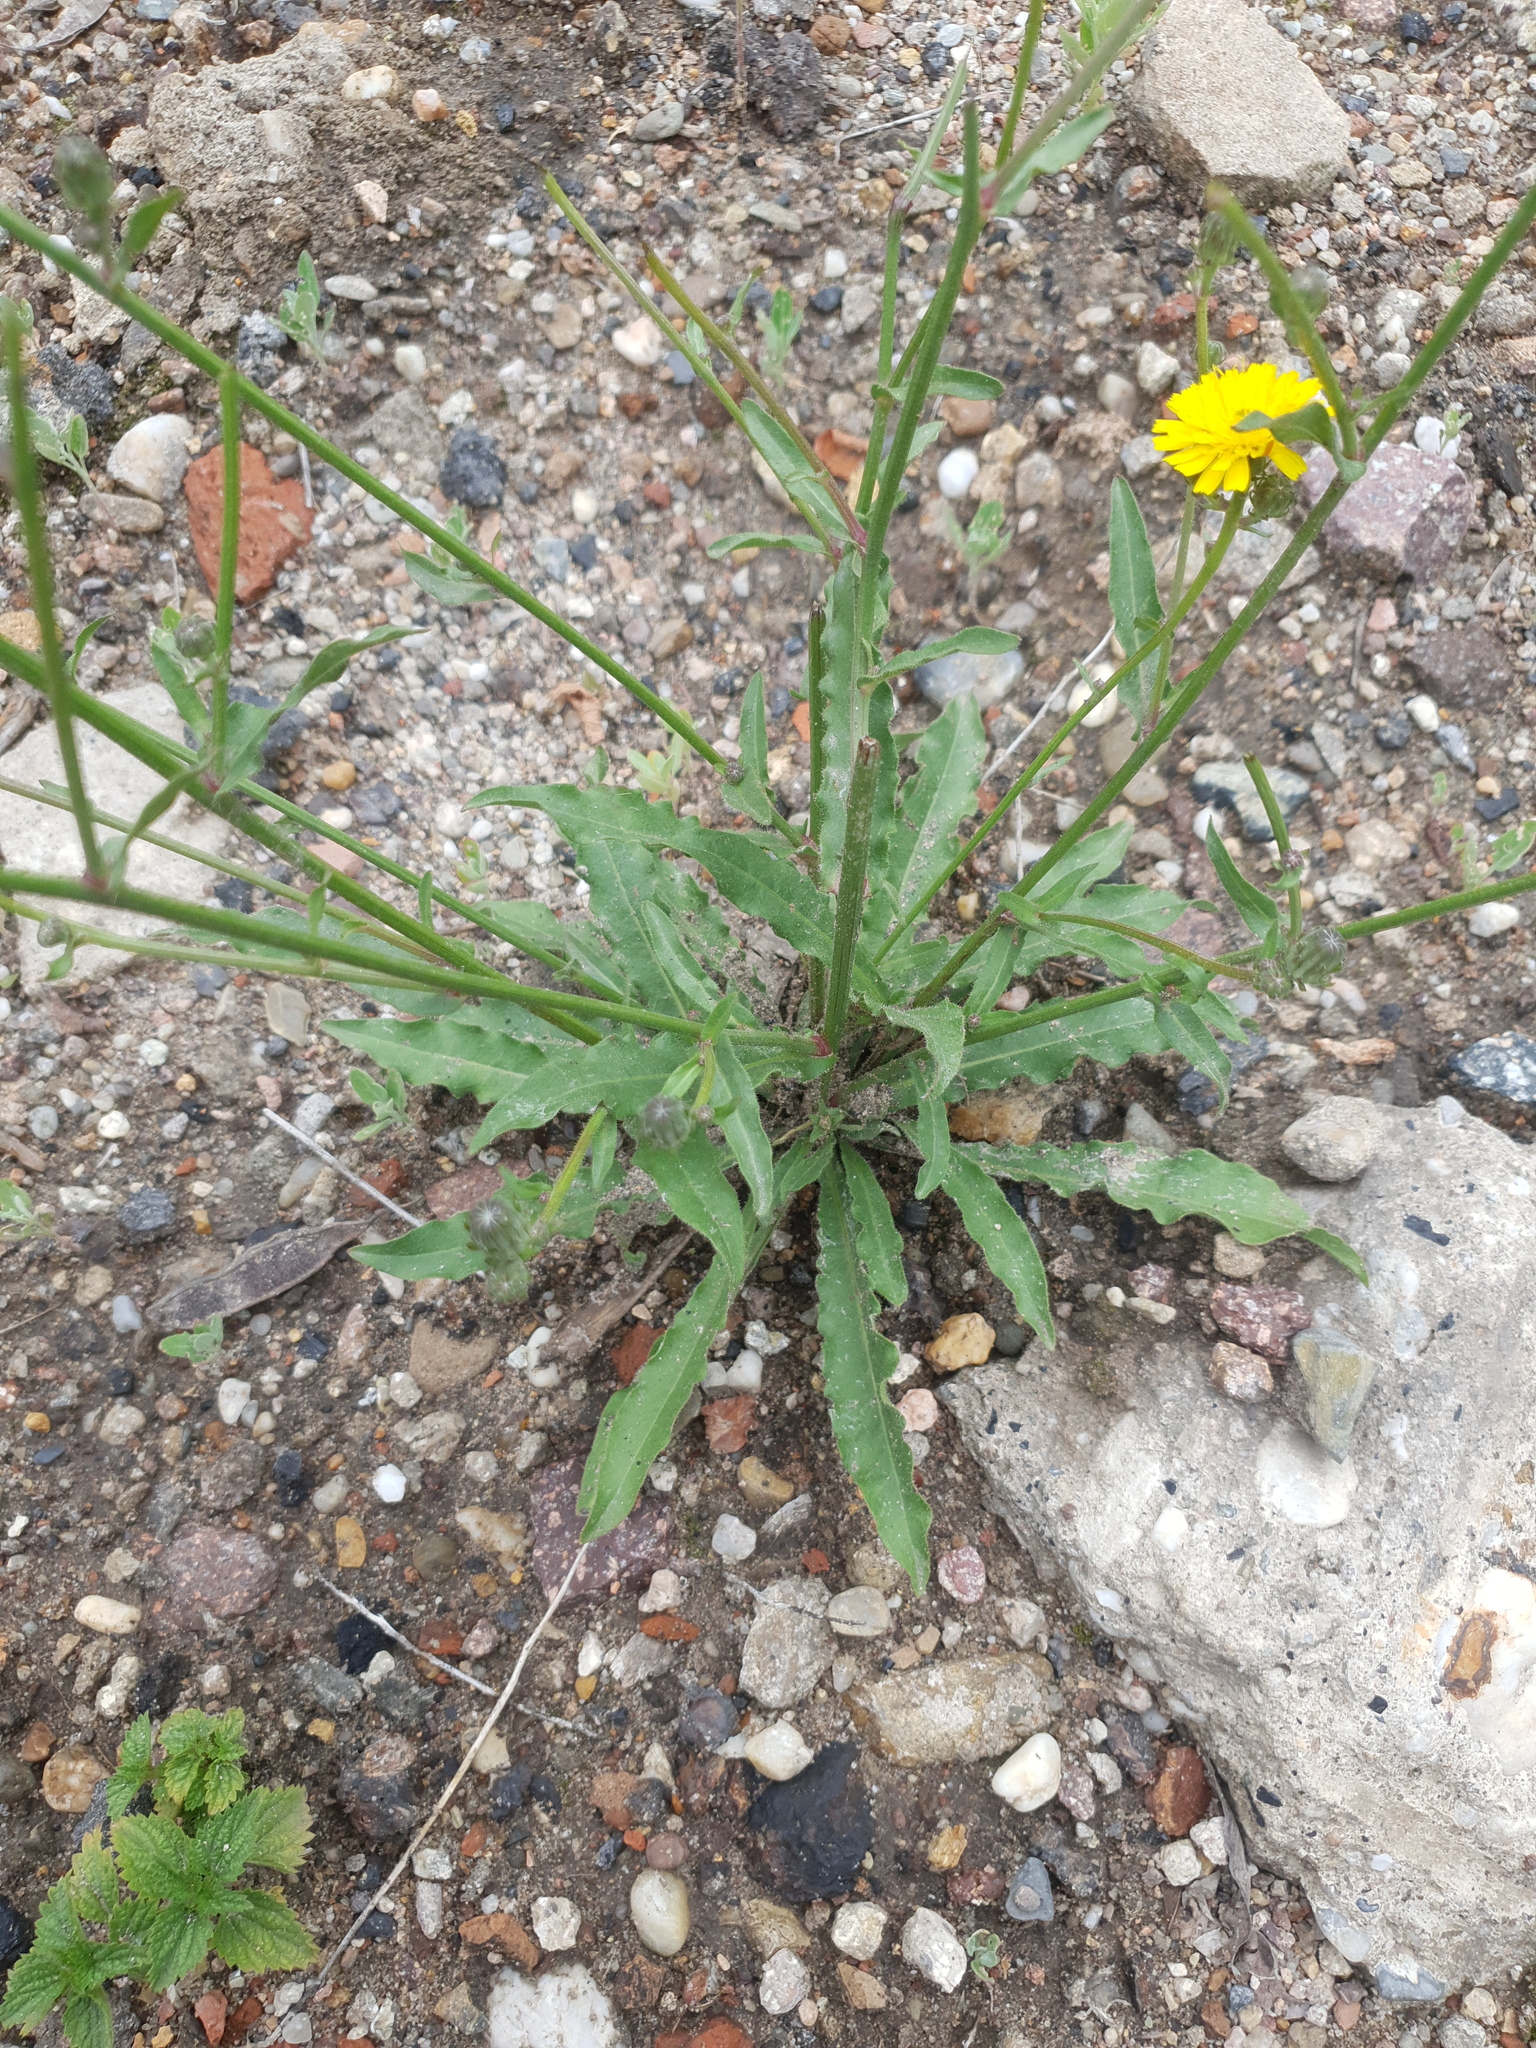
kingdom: Plantae
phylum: Tracheophyta
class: Magnoliopsida
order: Asterales
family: Asteraceae
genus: Picris
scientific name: Picris hieracioides
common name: Hawkweed oxtongue
